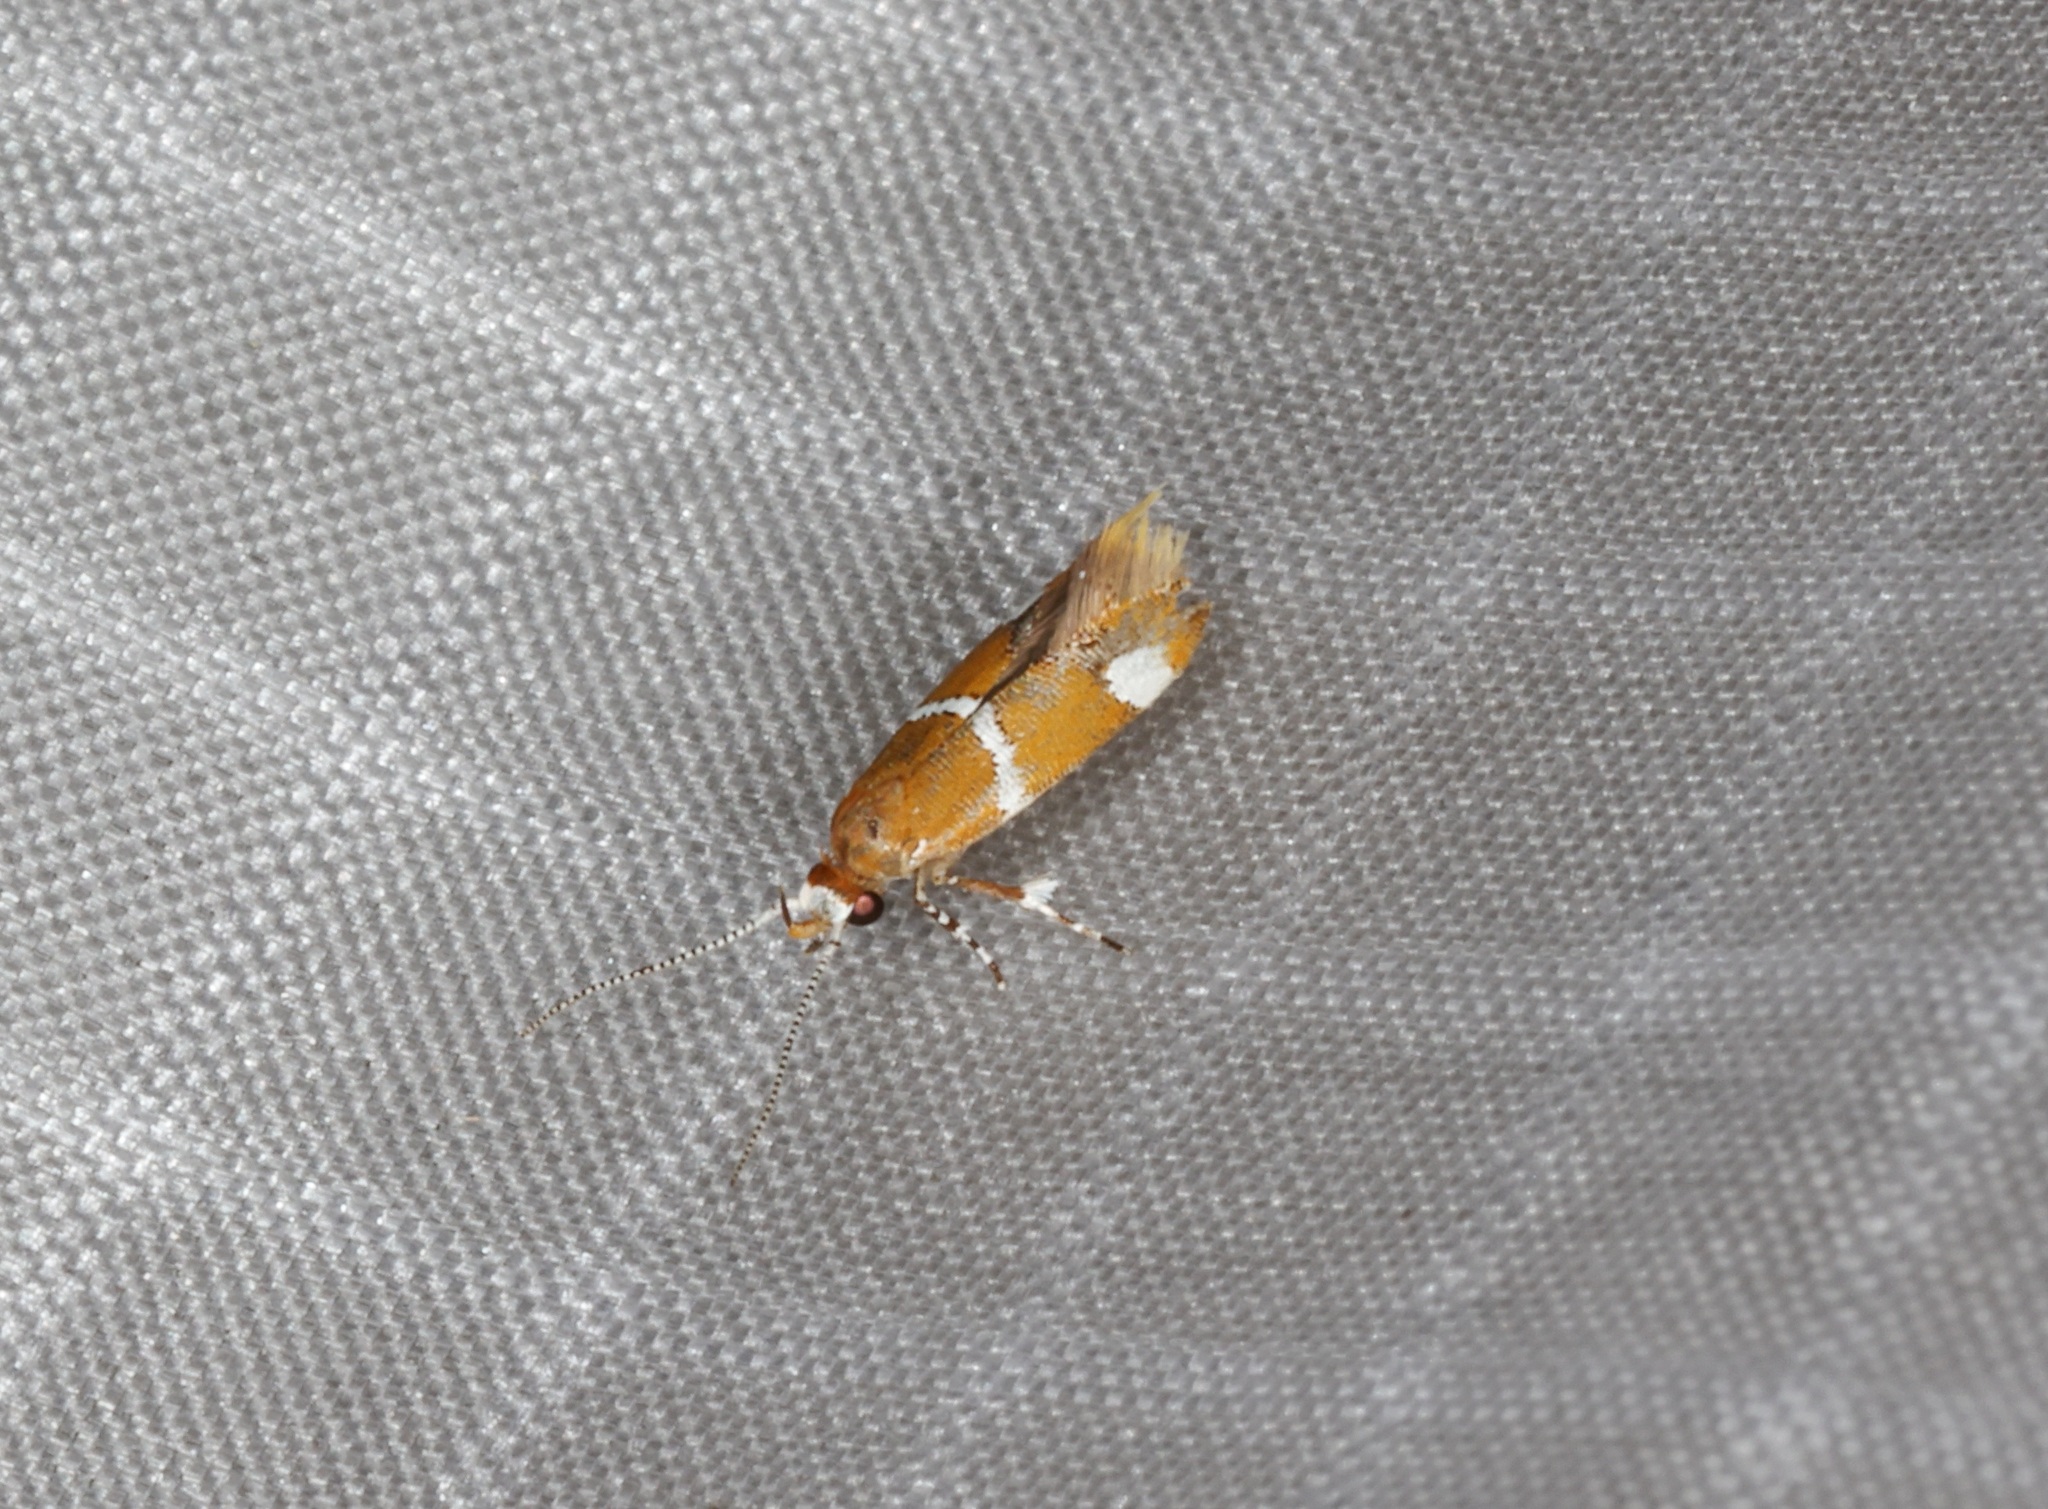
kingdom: Animalia
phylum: Arthropoda
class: Insecta
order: Lepidoptera
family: Oecophoridae
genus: Promalactis
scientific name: Promalactis albisquama
